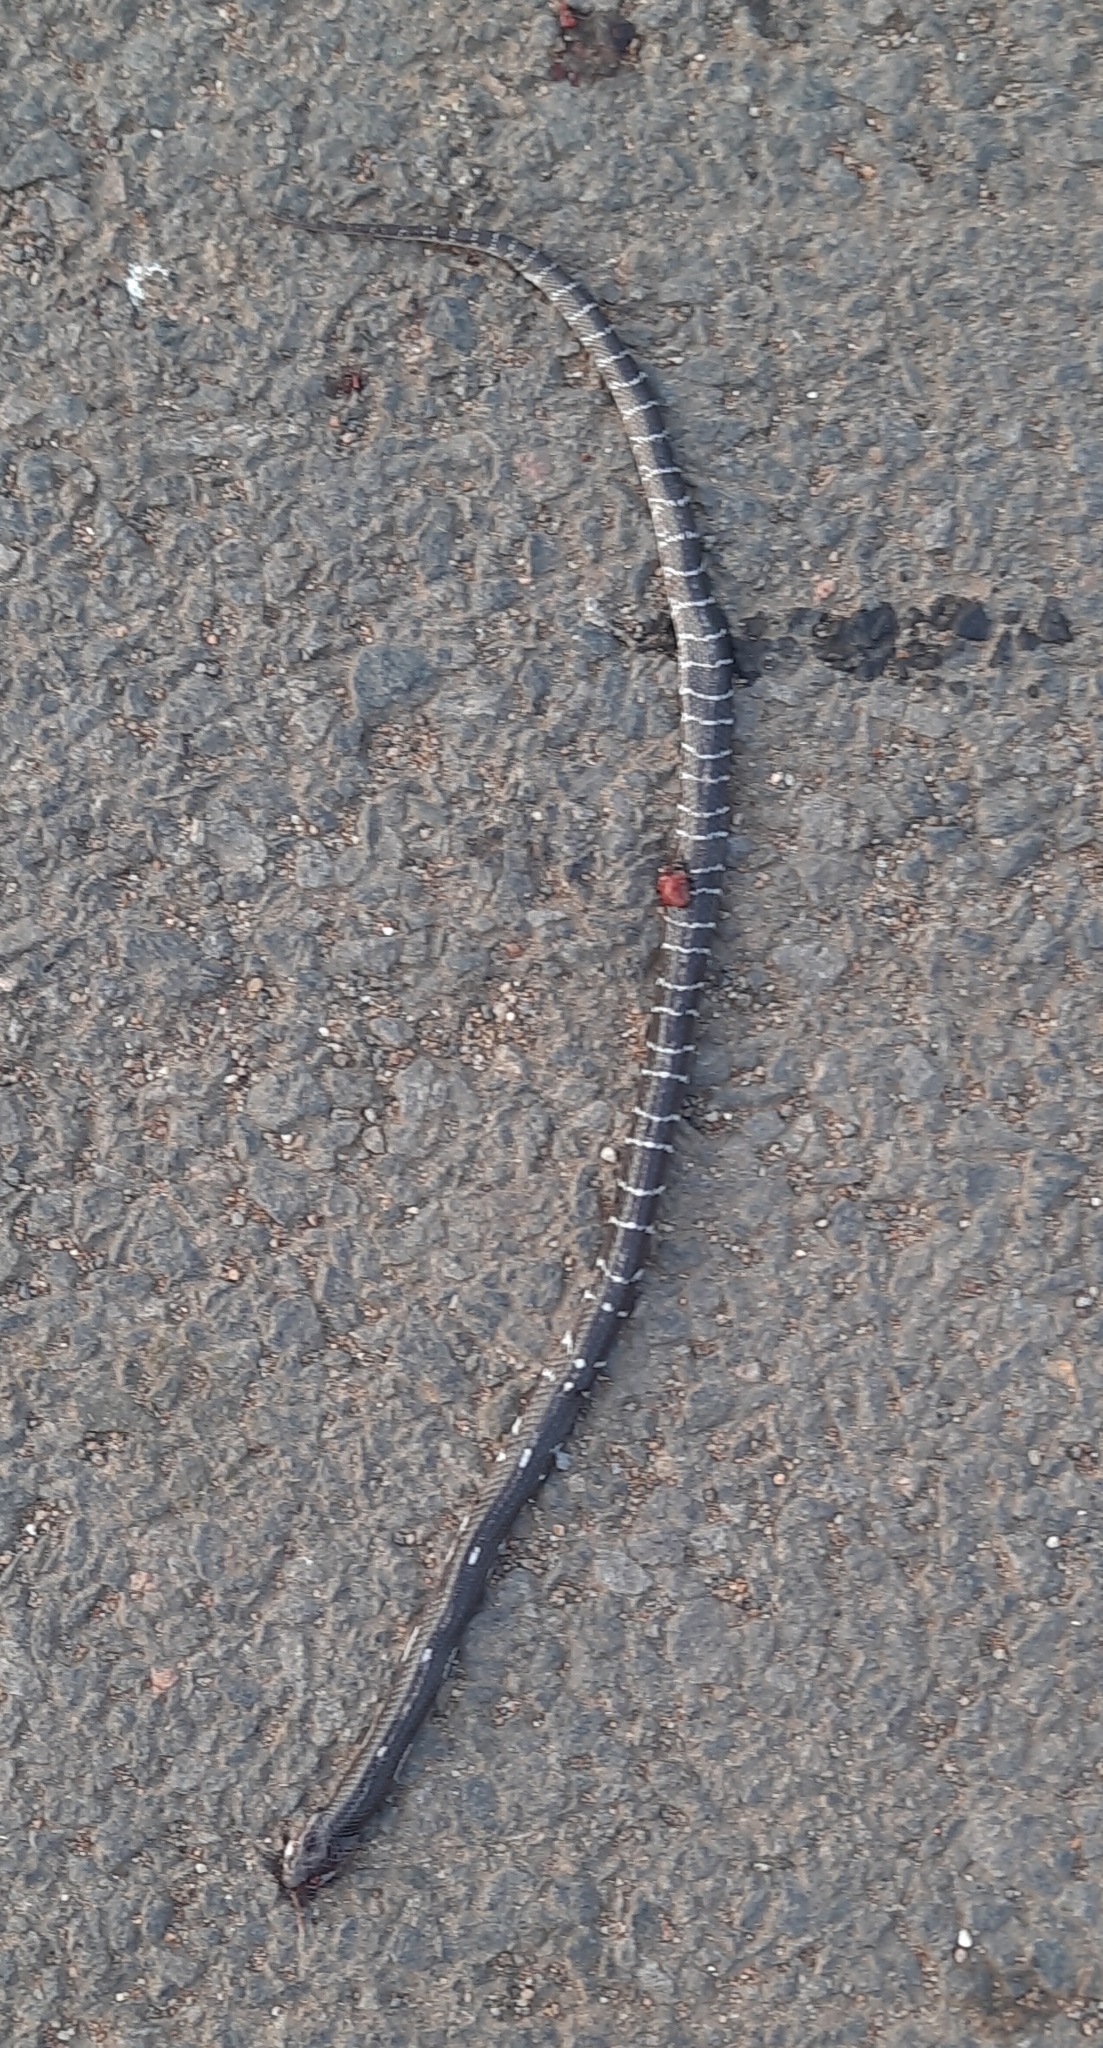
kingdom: Animalia
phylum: Chordata
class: Squamata
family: Elapidae
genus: Bungarus
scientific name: Bungarus caeruleus
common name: Common krait
